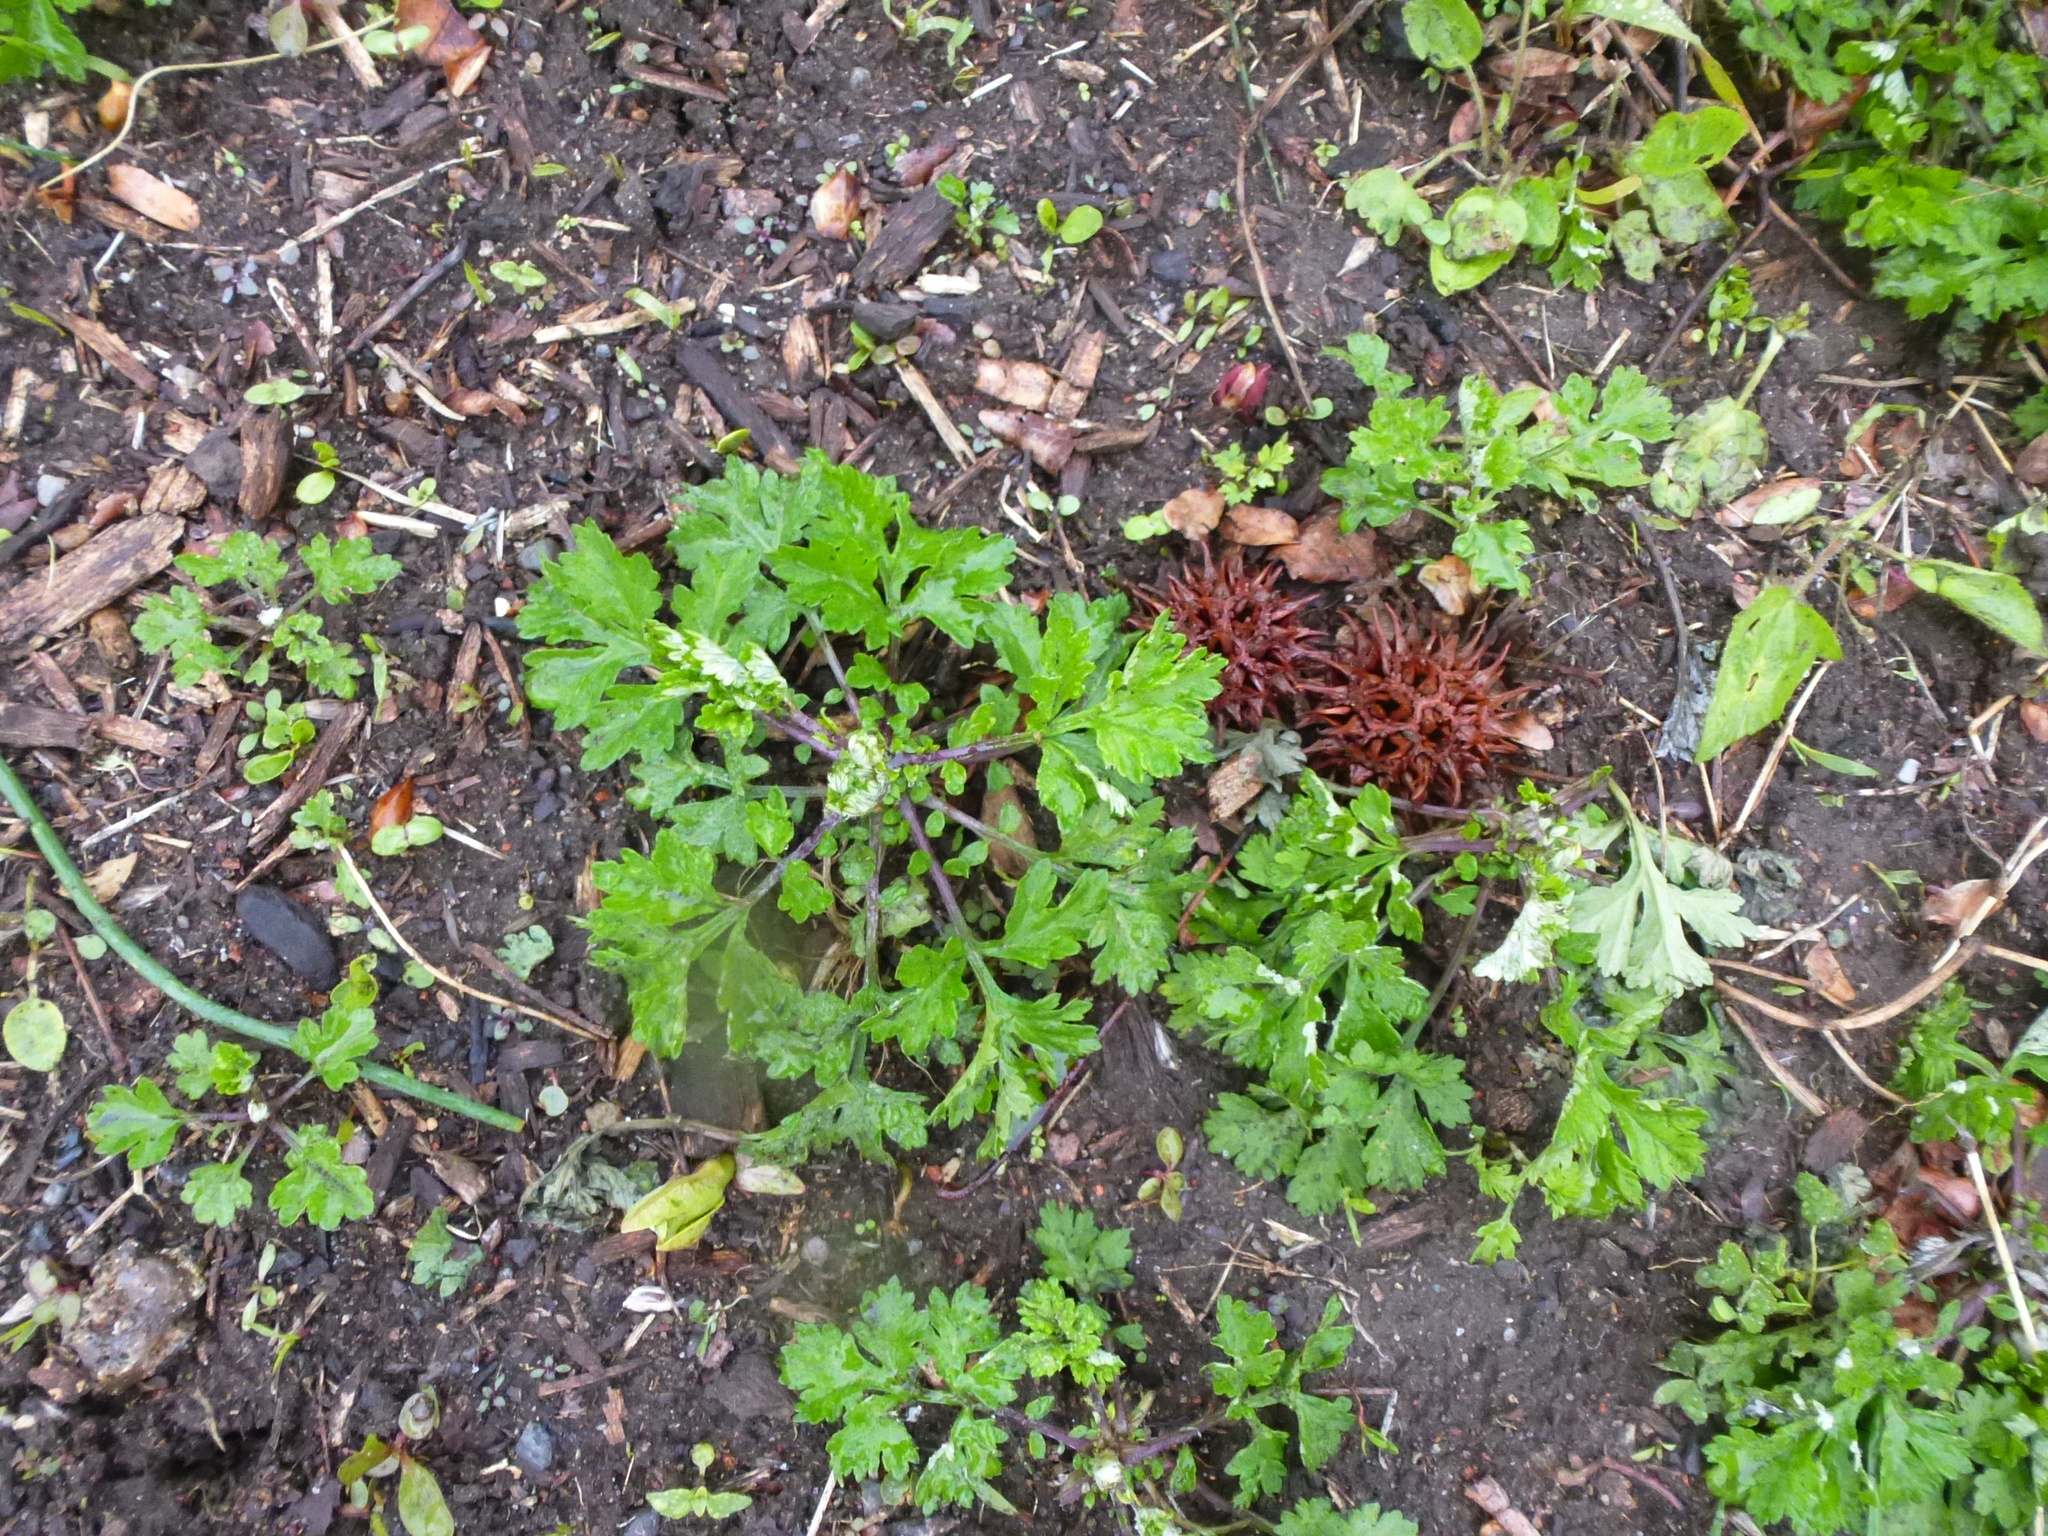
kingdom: Plantae
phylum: Tracheophyta
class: Magnoliopsida
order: Asterales
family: Asteraceae
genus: Artemisia
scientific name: Artemisia vulgaris
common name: Mugwort
